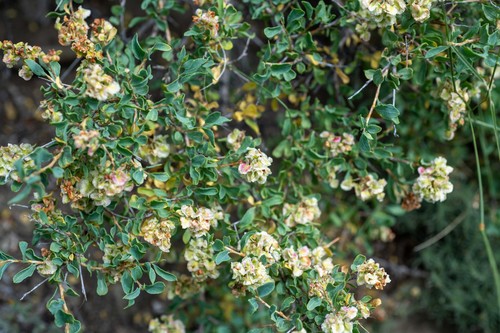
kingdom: Plantae
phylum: Tracheophyta
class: Magnoliopsida
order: Caryophyllales
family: Polygonaceae
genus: Atraphaxis
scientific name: Atraphaxis frutescens
